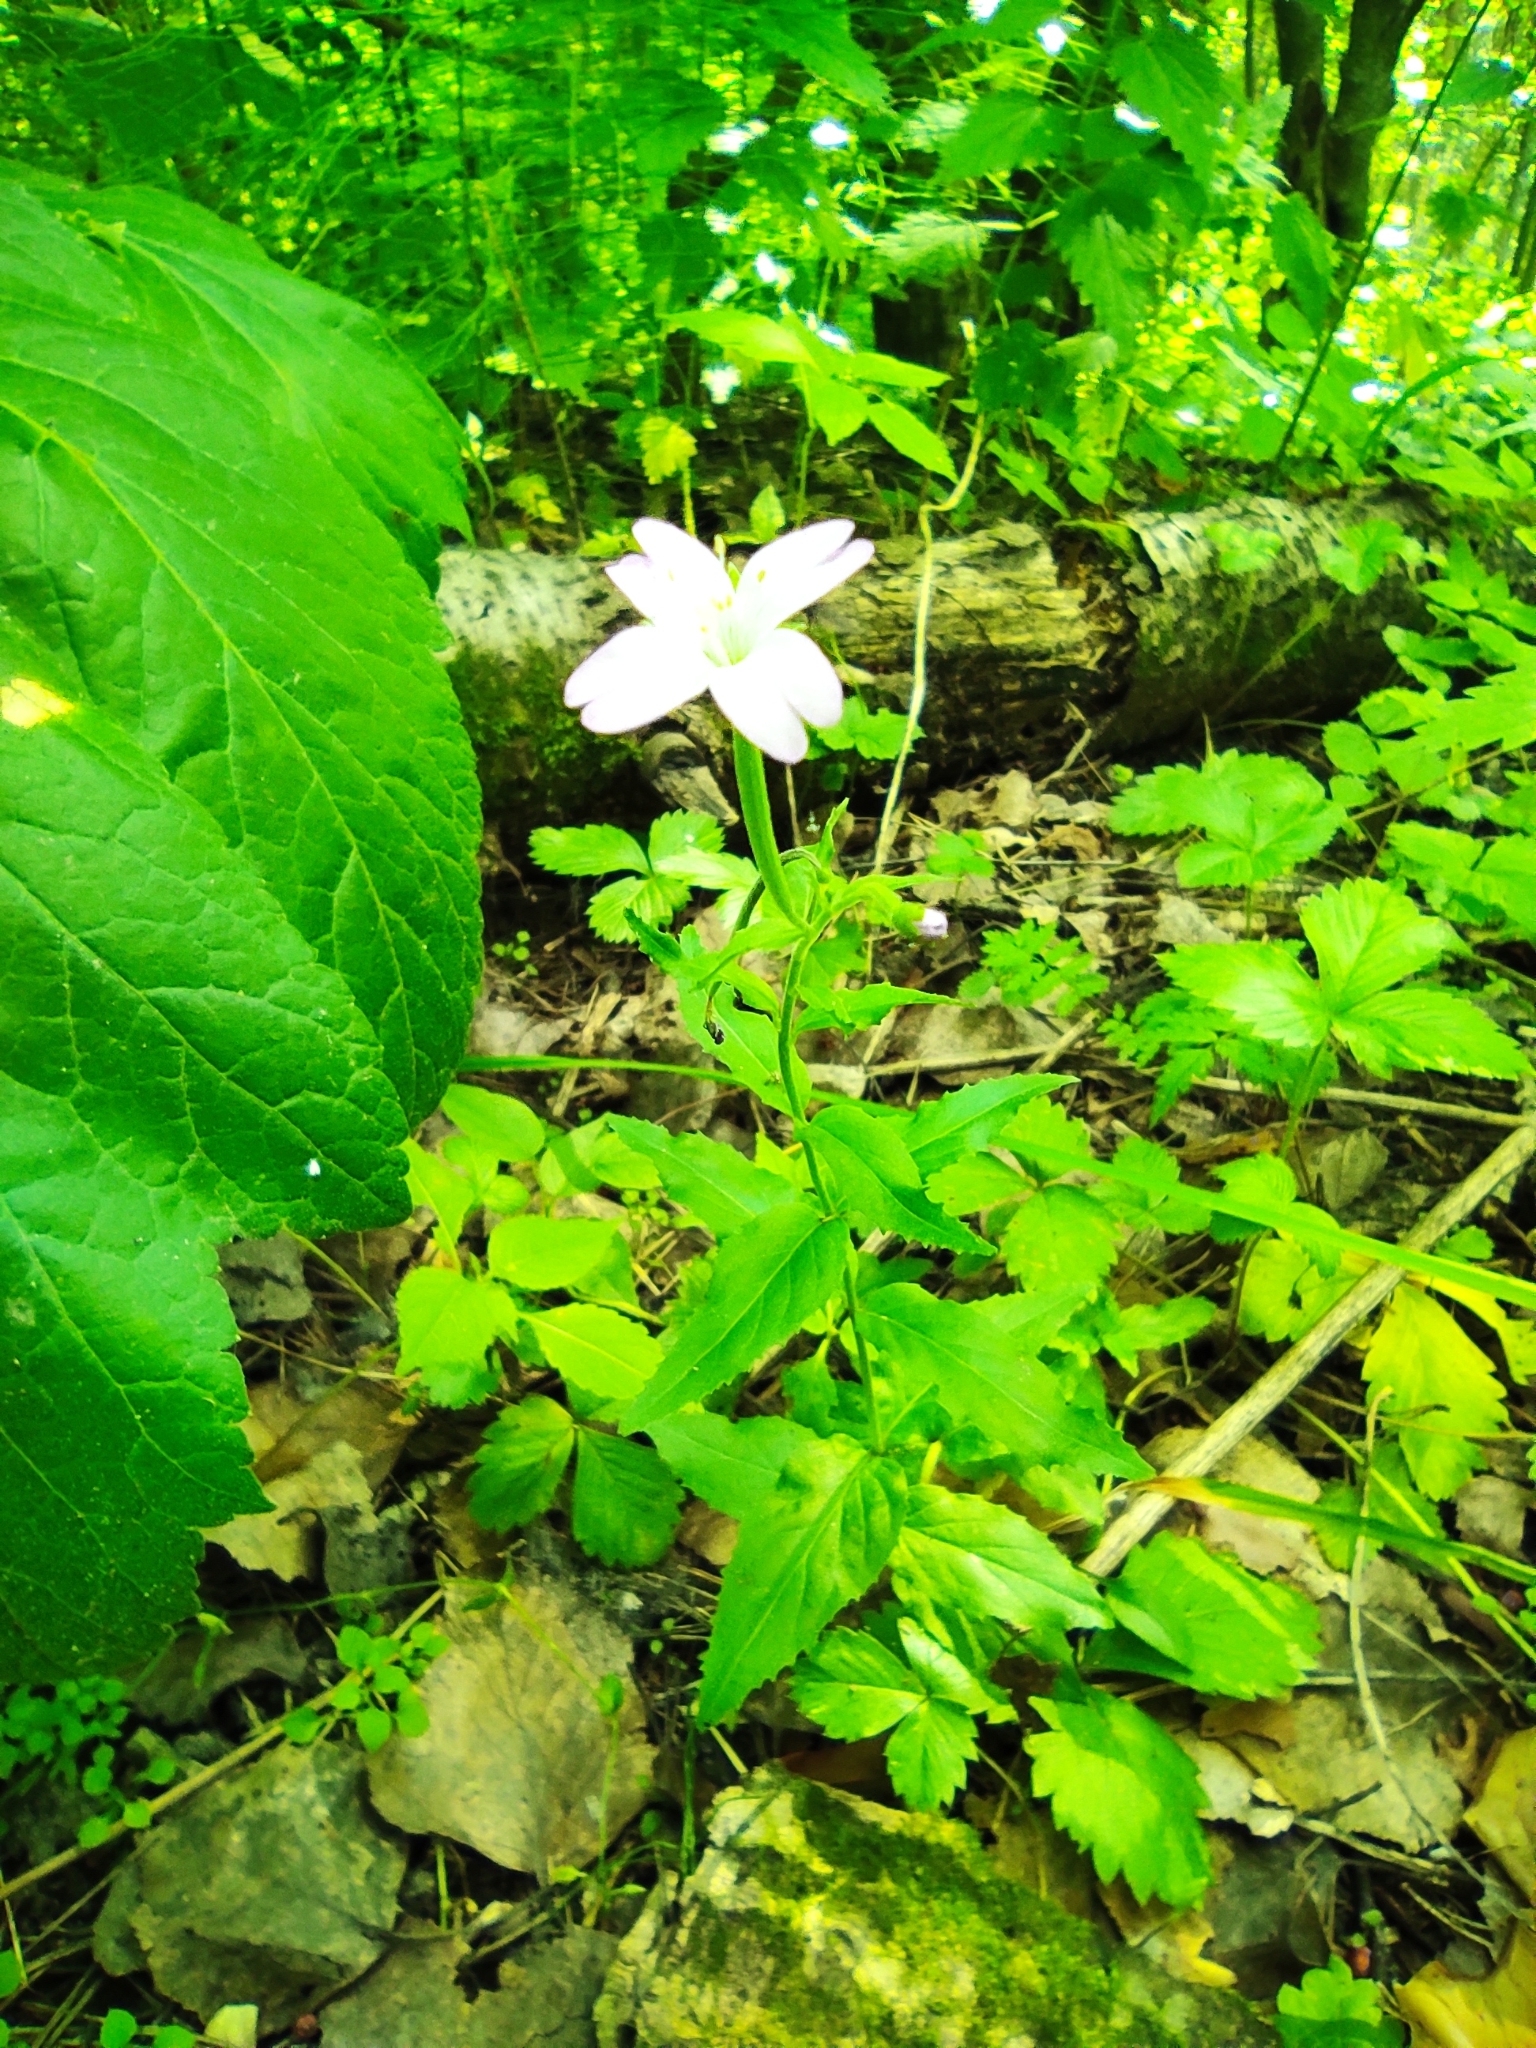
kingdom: Plantae
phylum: Tracheophyta
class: Magnoliopsida
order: Myrtales
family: Onagraceae
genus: Epilobium
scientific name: Epilobium montanum
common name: Broad-leaved willowherb
